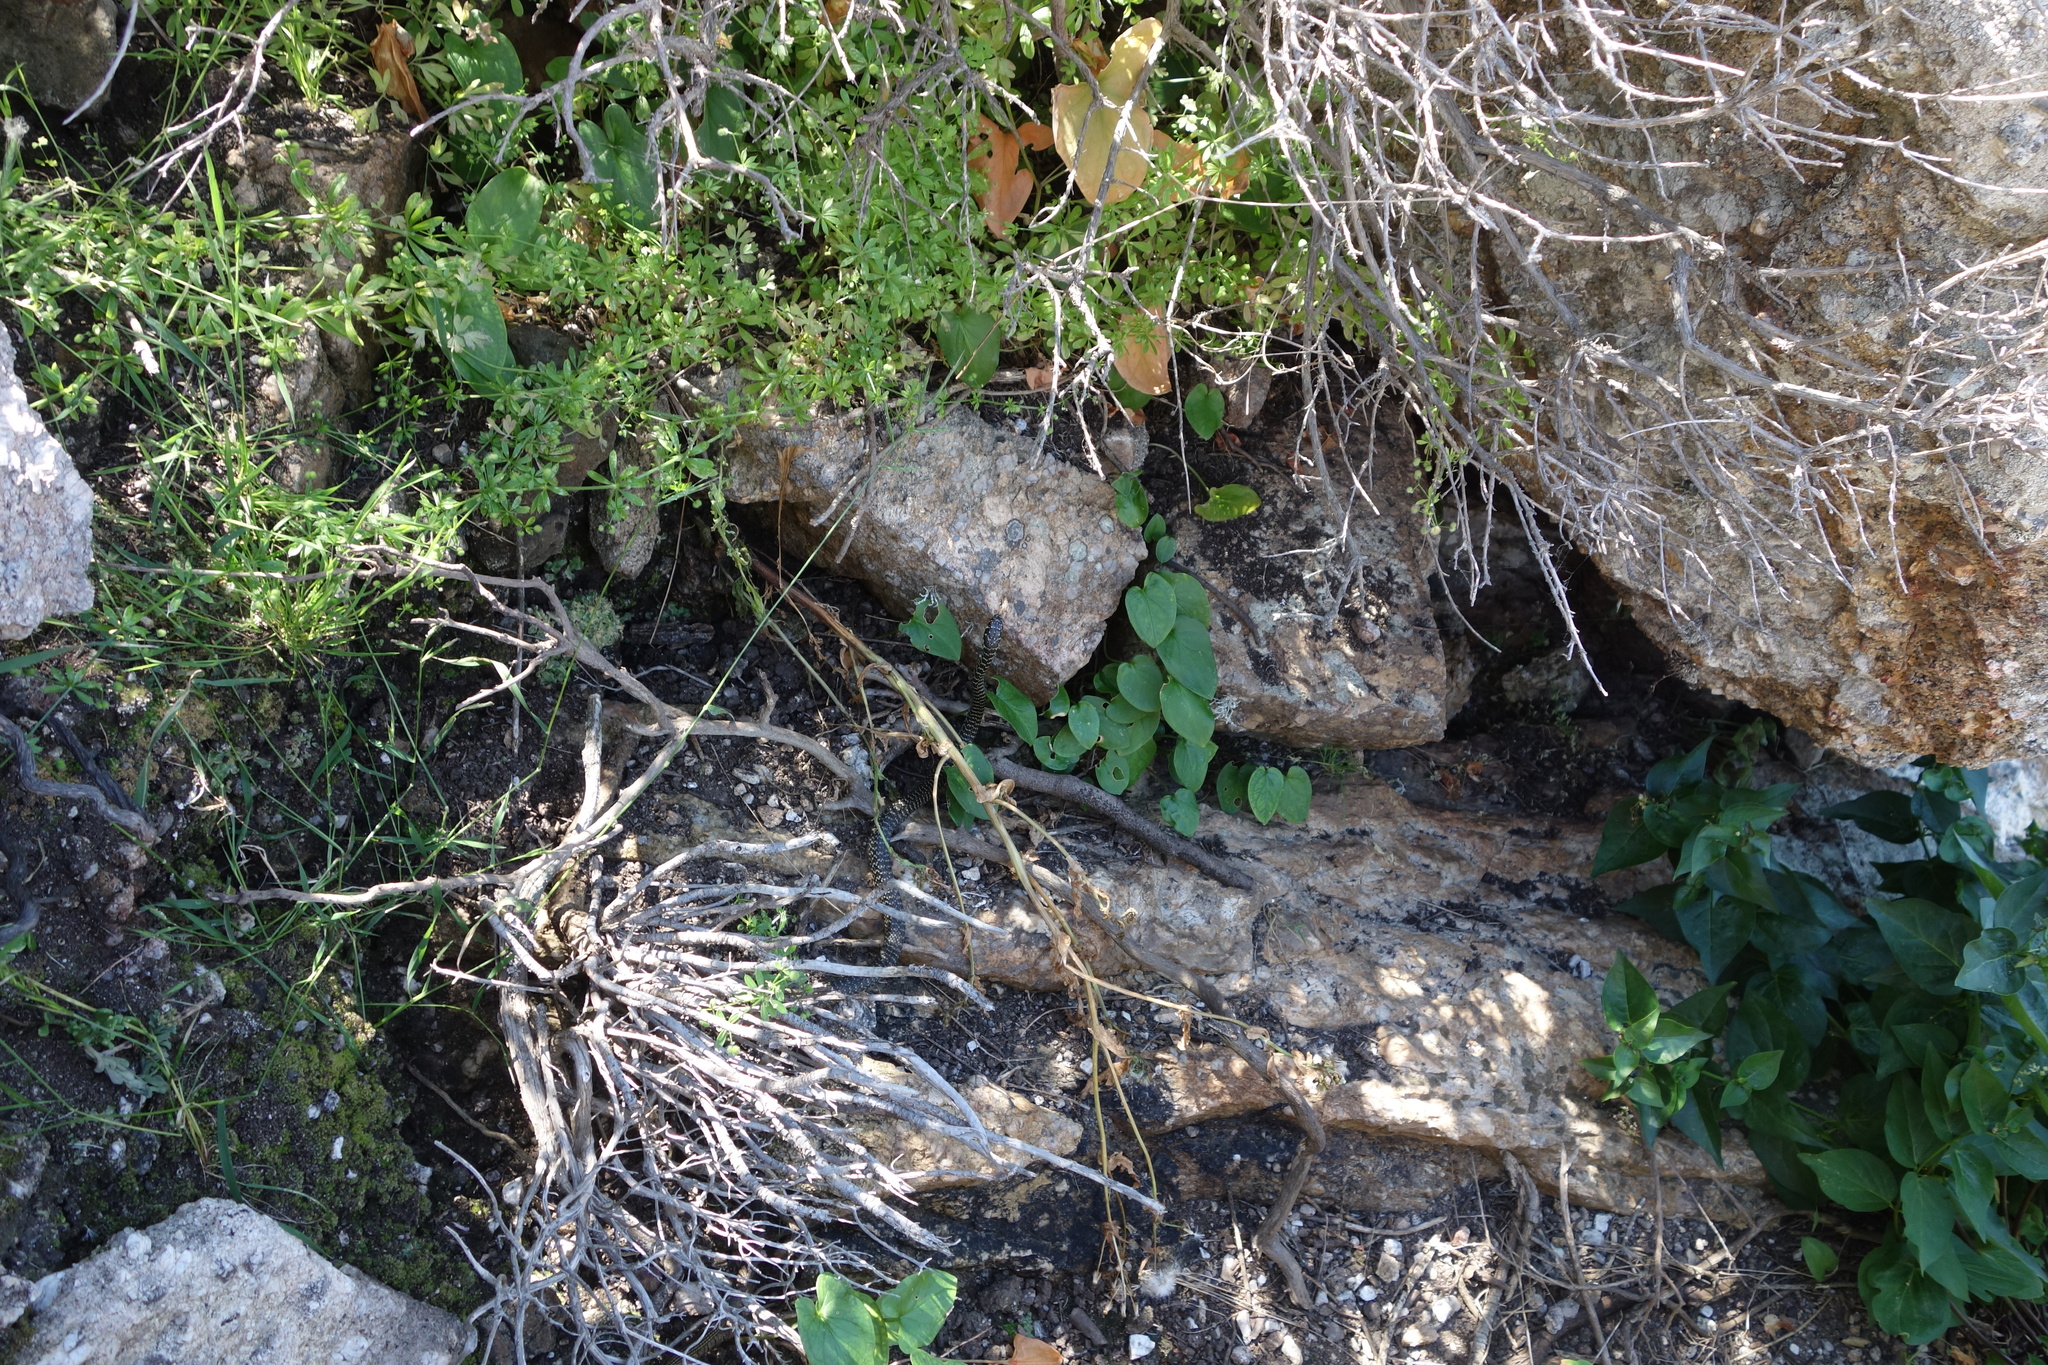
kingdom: Animalia
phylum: Chordata
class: Squamata
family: Colubridae
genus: Hierophis
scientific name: Hierophis viridiflavus
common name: Green whip snake
